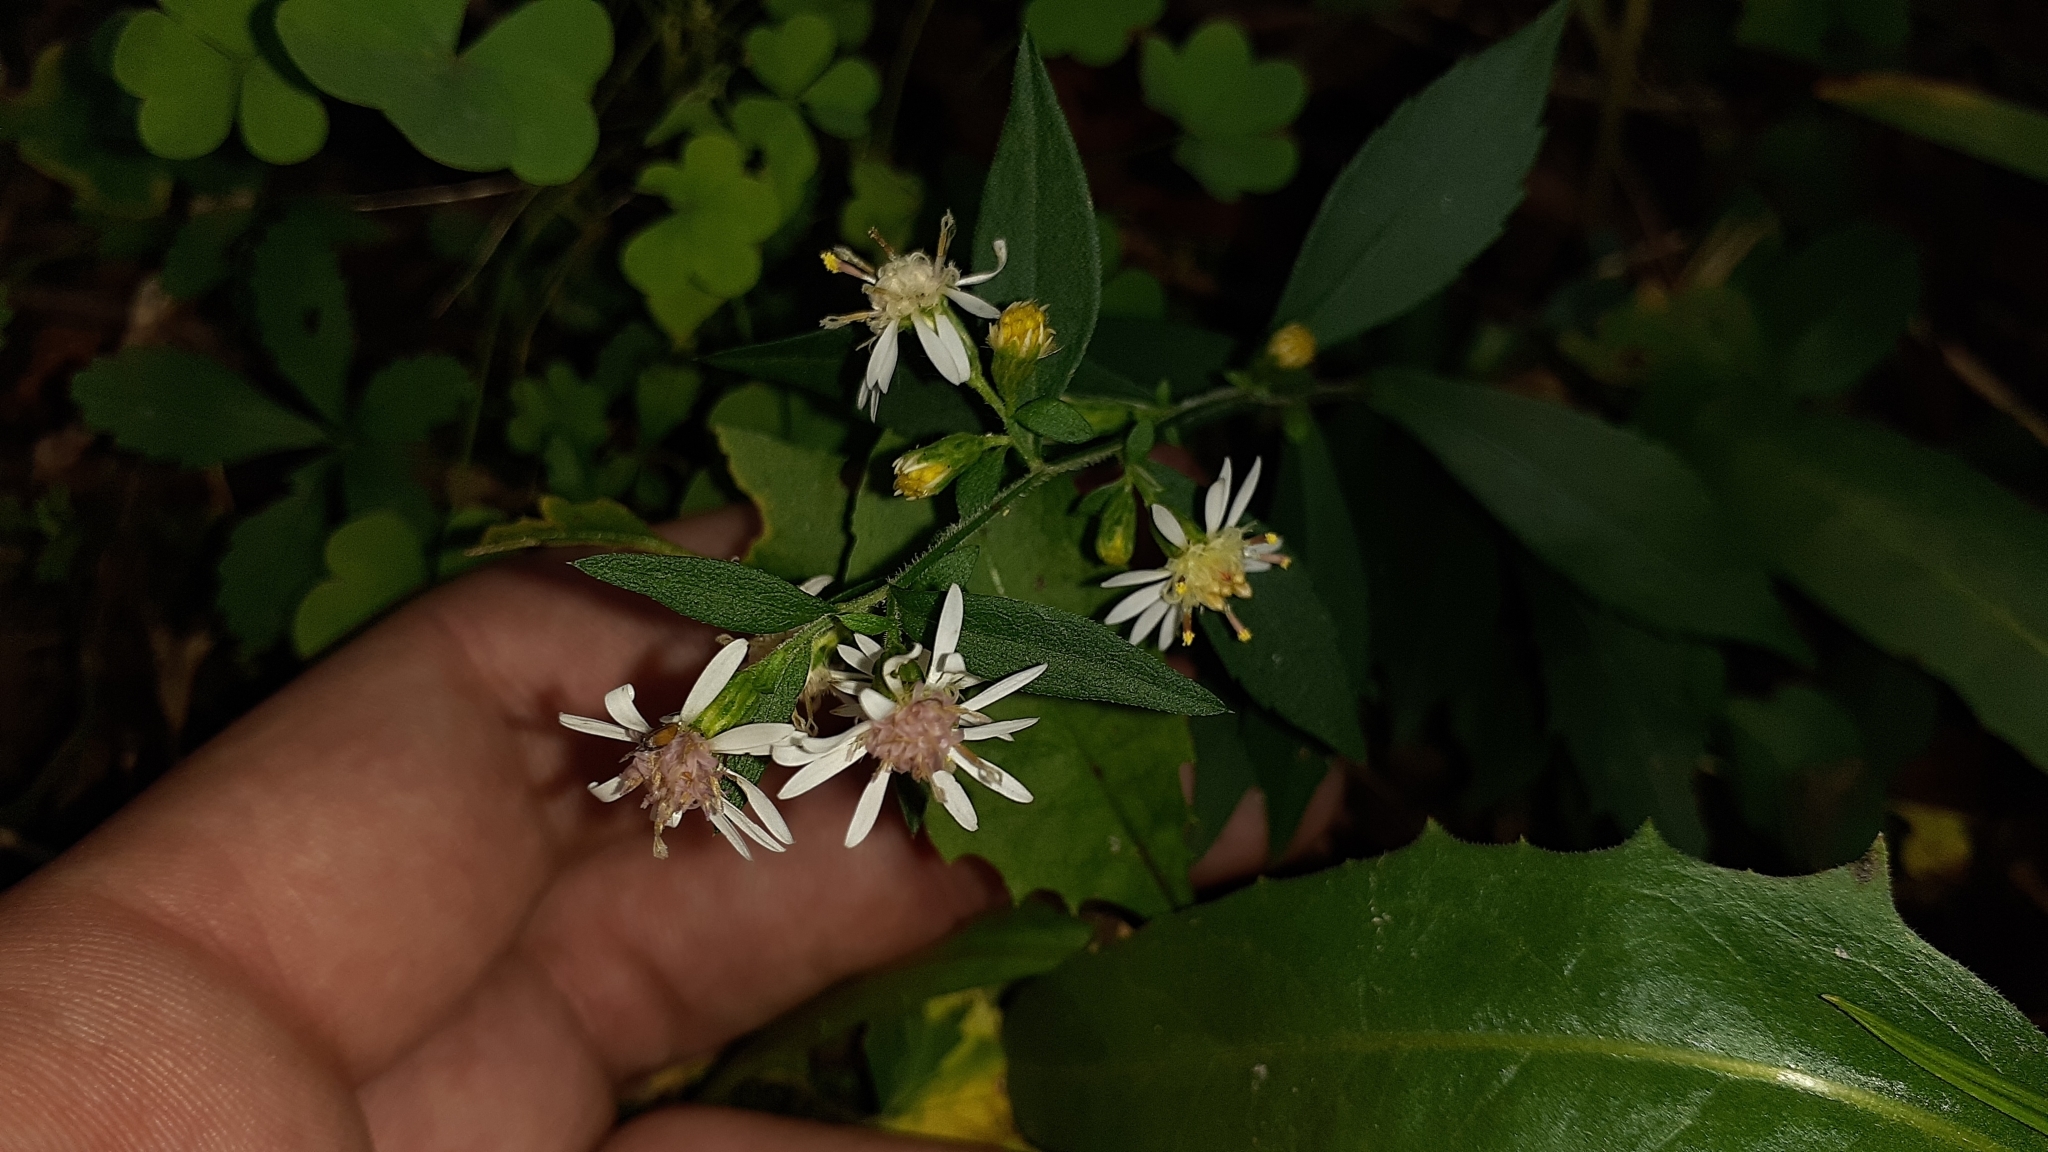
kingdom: Plantae
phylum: Tracheophyta
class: Magnoliopsida
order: Asterales
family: Asteraceae
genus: Symphyotrichum
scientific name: Symphyotrichum lateriflorum
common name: Calico aster
